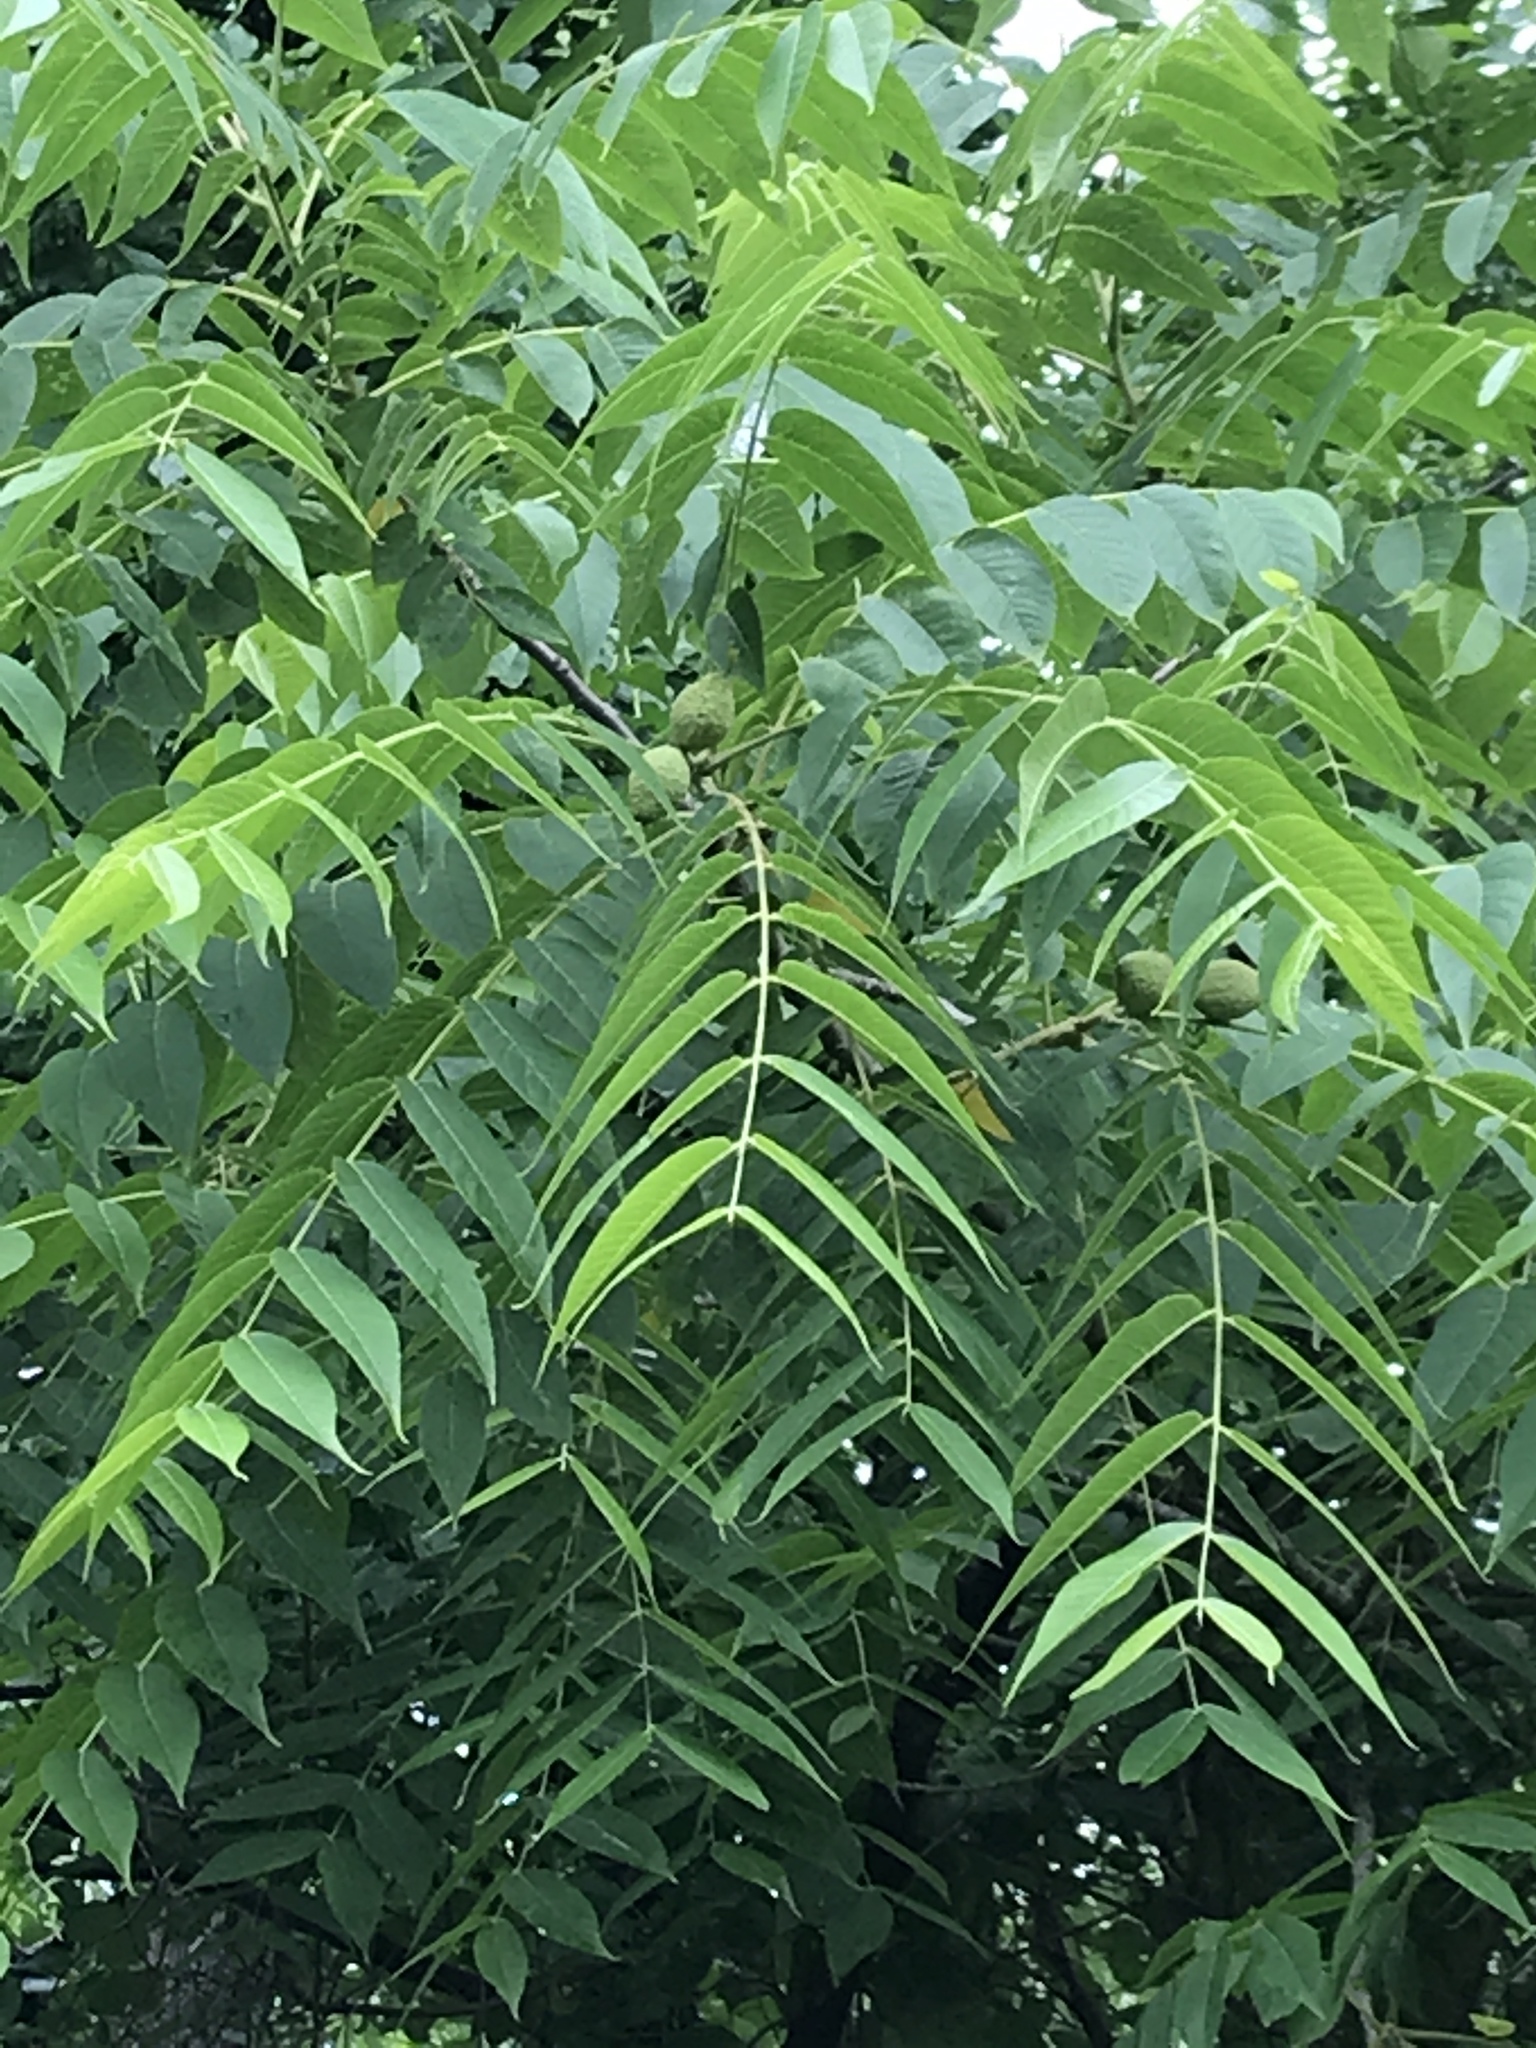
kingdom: Plantae
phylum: Tracheophyta
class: Magnoliopsida
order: Fagales
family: Juglandaceae
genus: Juglans
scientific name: Juglans nigra
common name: Black walnut
